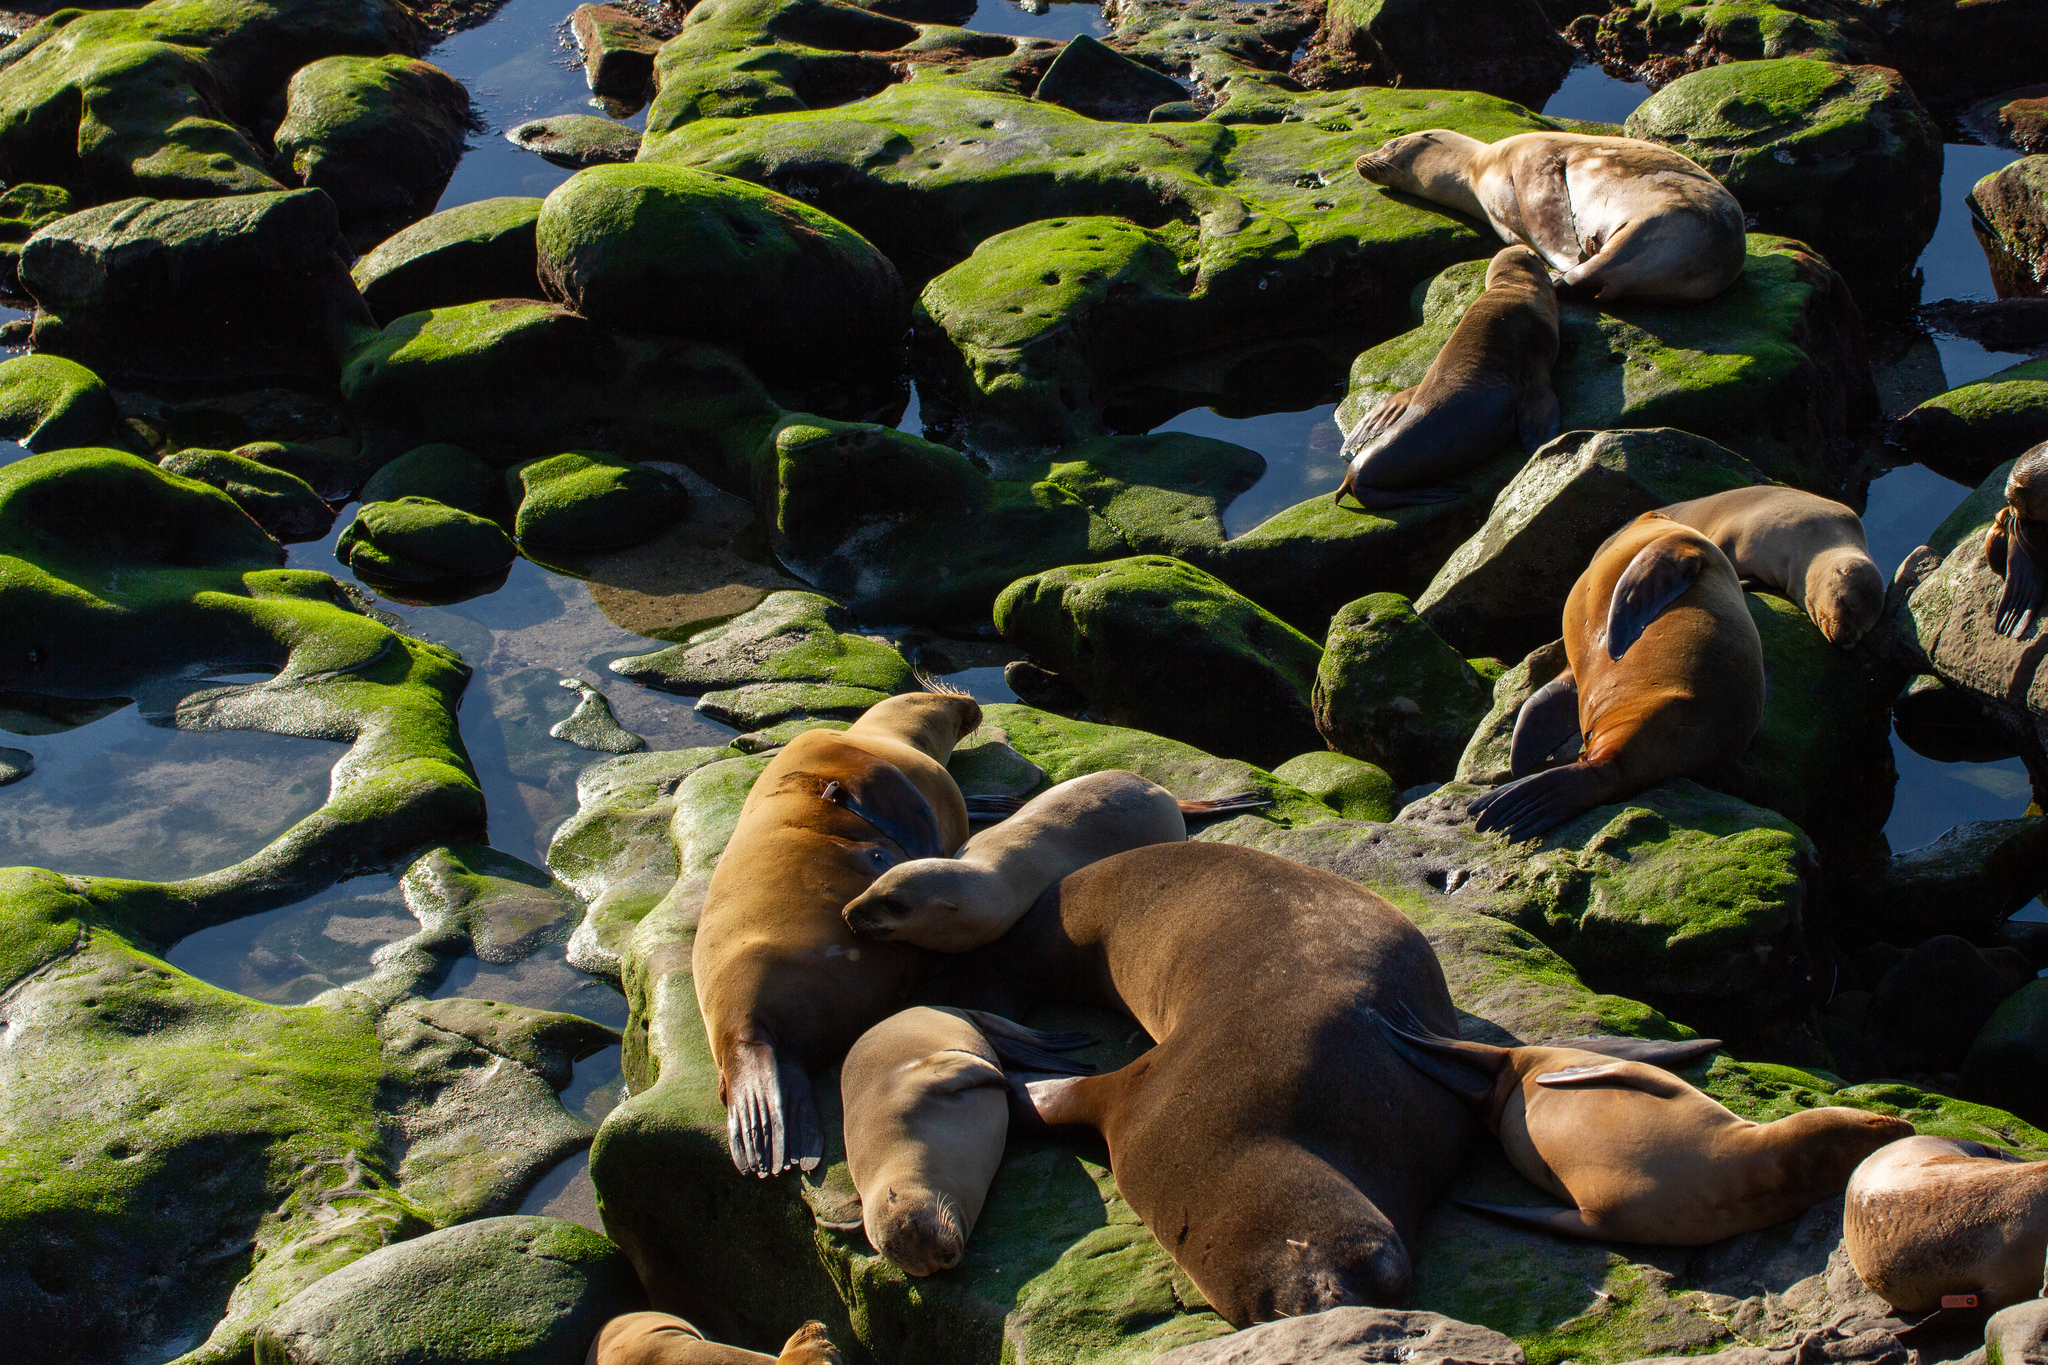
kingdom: Animalia
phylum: Chordata
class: Mammalia
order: Carnivora
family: Otariidae
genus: Zalophus
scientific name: Zalophus californianus
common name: California sea lion
